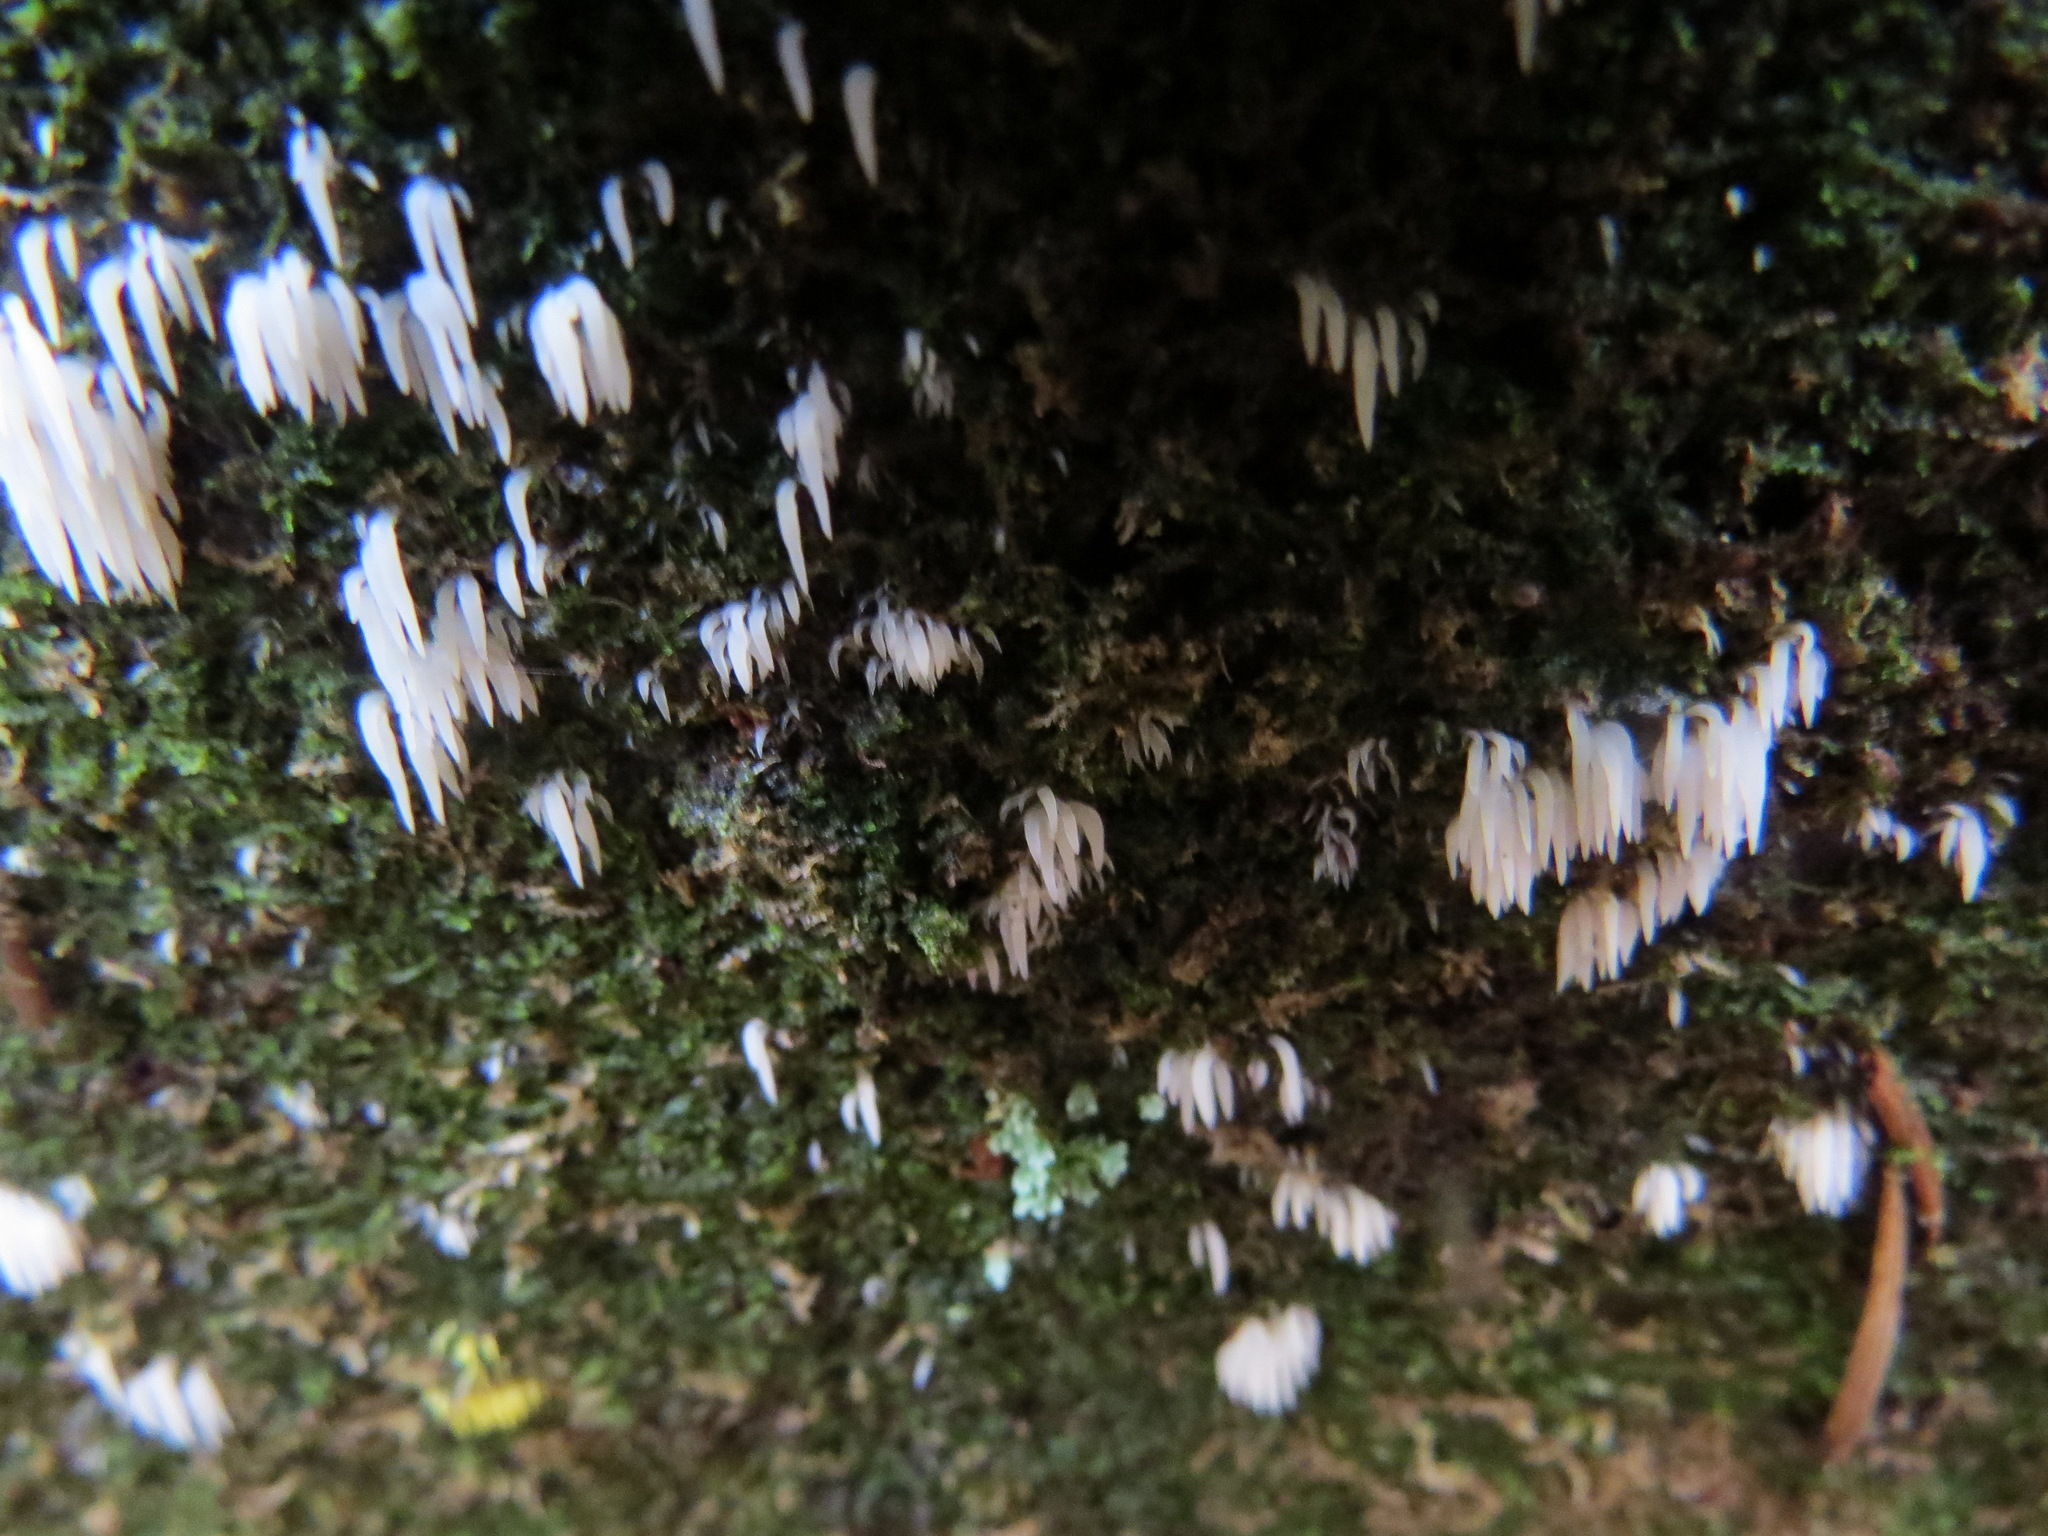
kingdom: Fungi
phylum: Basidiomycota
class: Agaricomycetes
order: Agaricales
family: Clavariaceae
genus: Mucronella
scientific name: Mucronella calva
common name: Swarming spine
